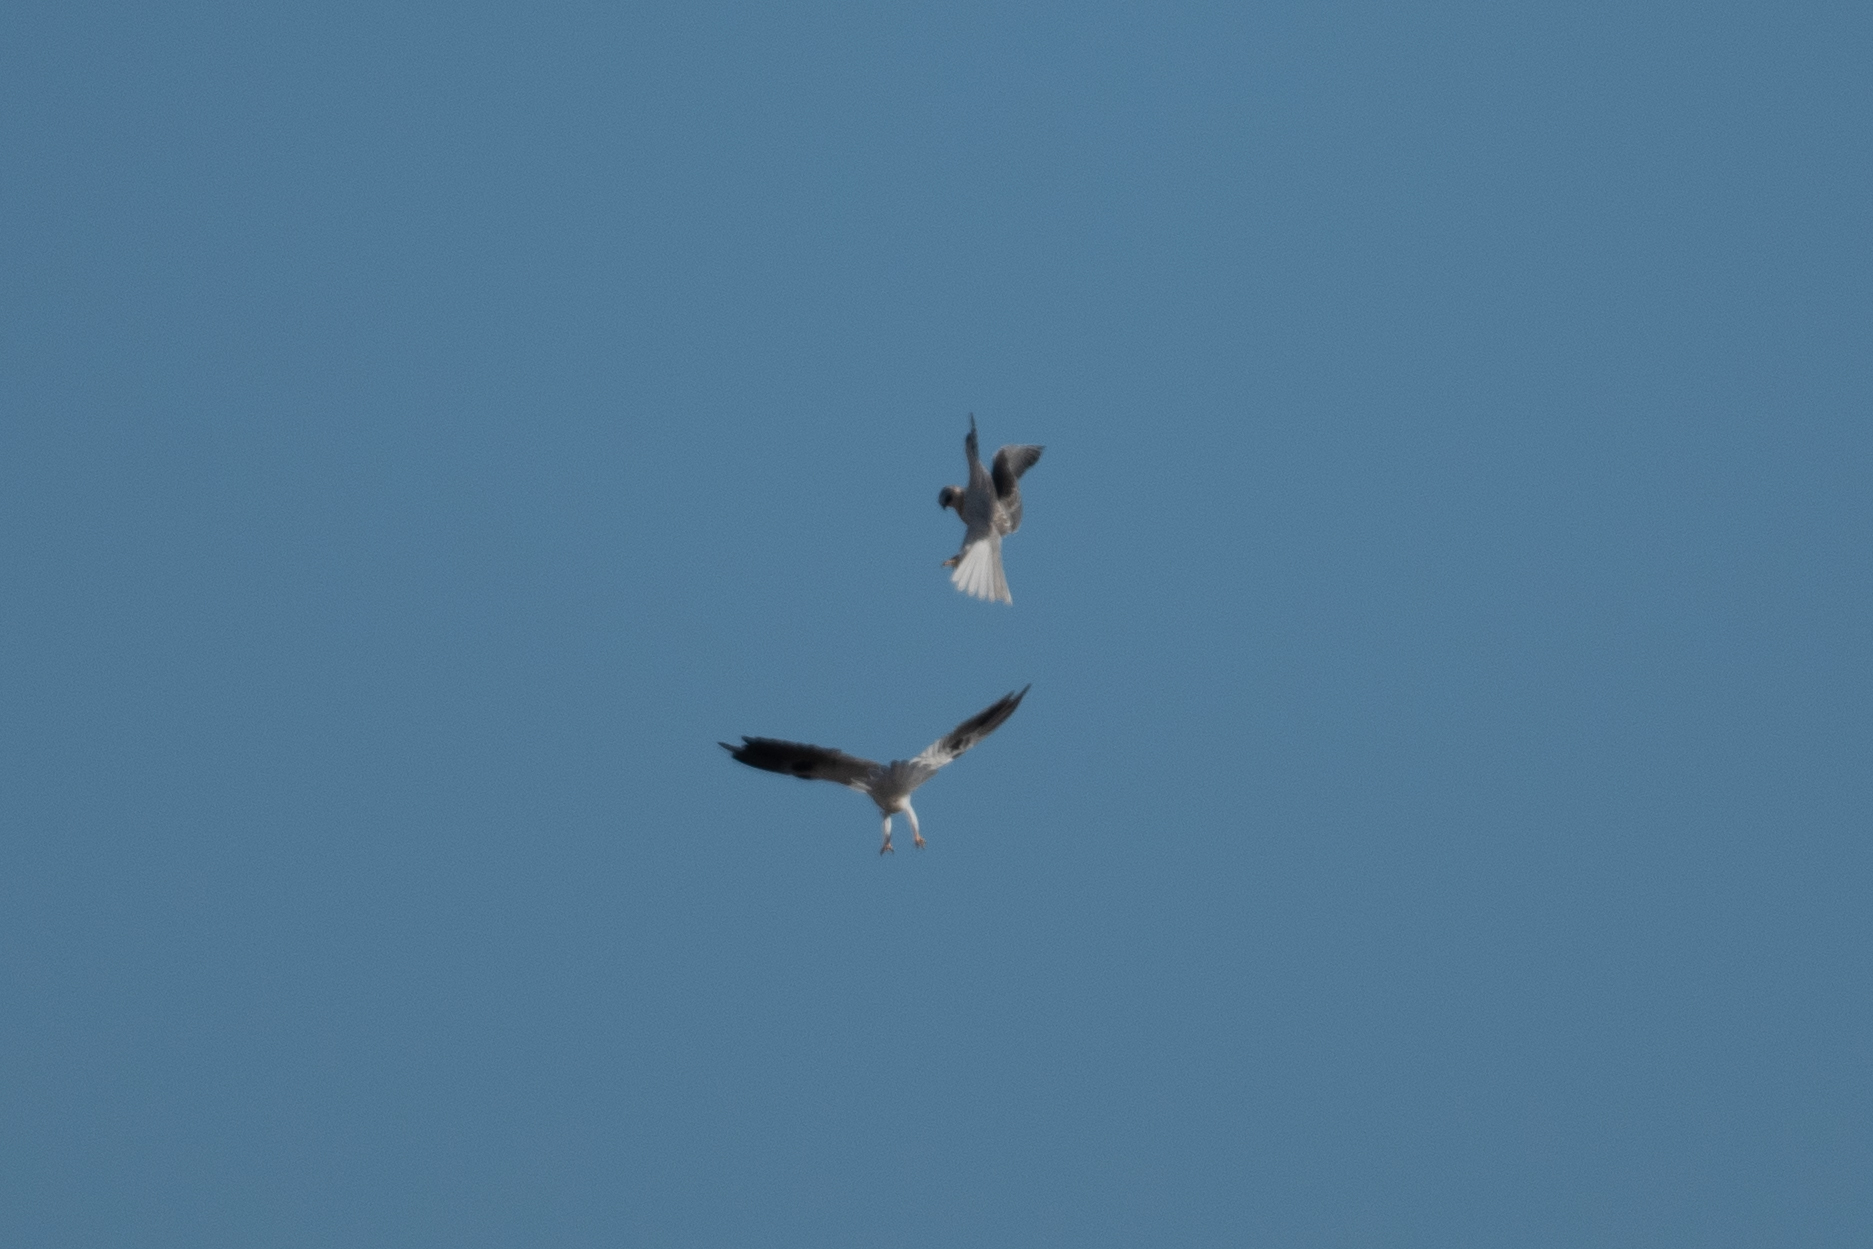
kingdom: Animalia
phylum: Chordata
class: Aves
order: Accipitriformes
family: Accipitridae
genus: Elanus
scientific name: Elanus leucurus
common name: White-tailed kite
